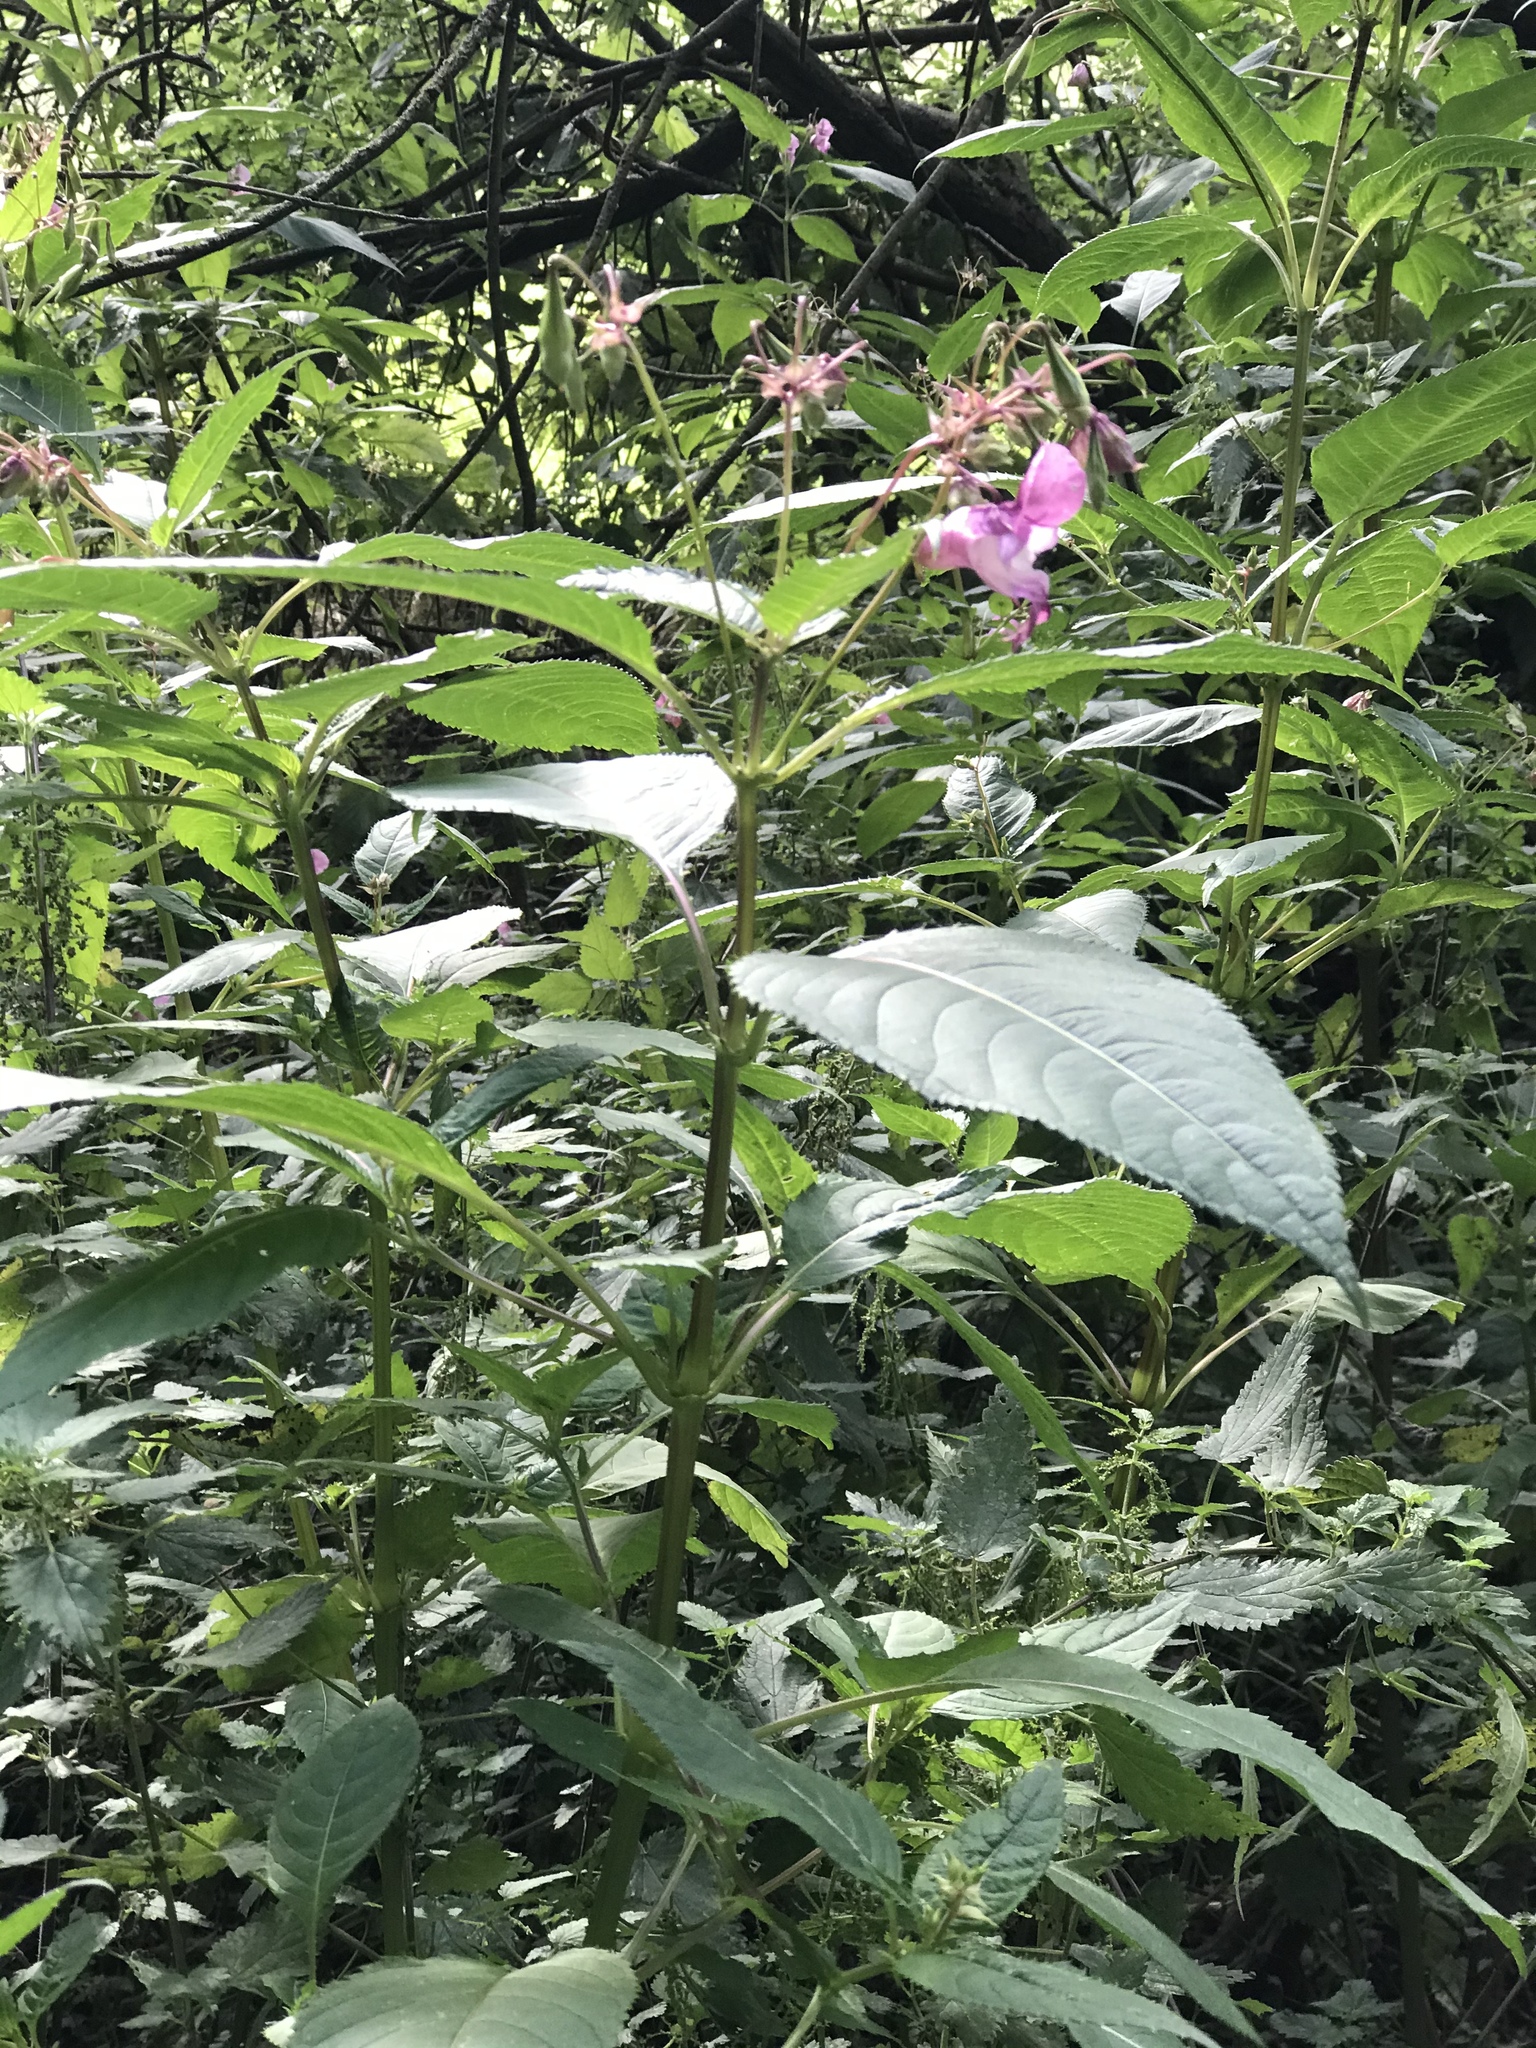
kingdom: Plantae
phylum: Tracheophyta
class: Magnoliopsida
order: Ericales
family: Balsaminaceae
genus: Impatiens
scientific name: Impatiens glandulifera
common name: Himalayan balsam
